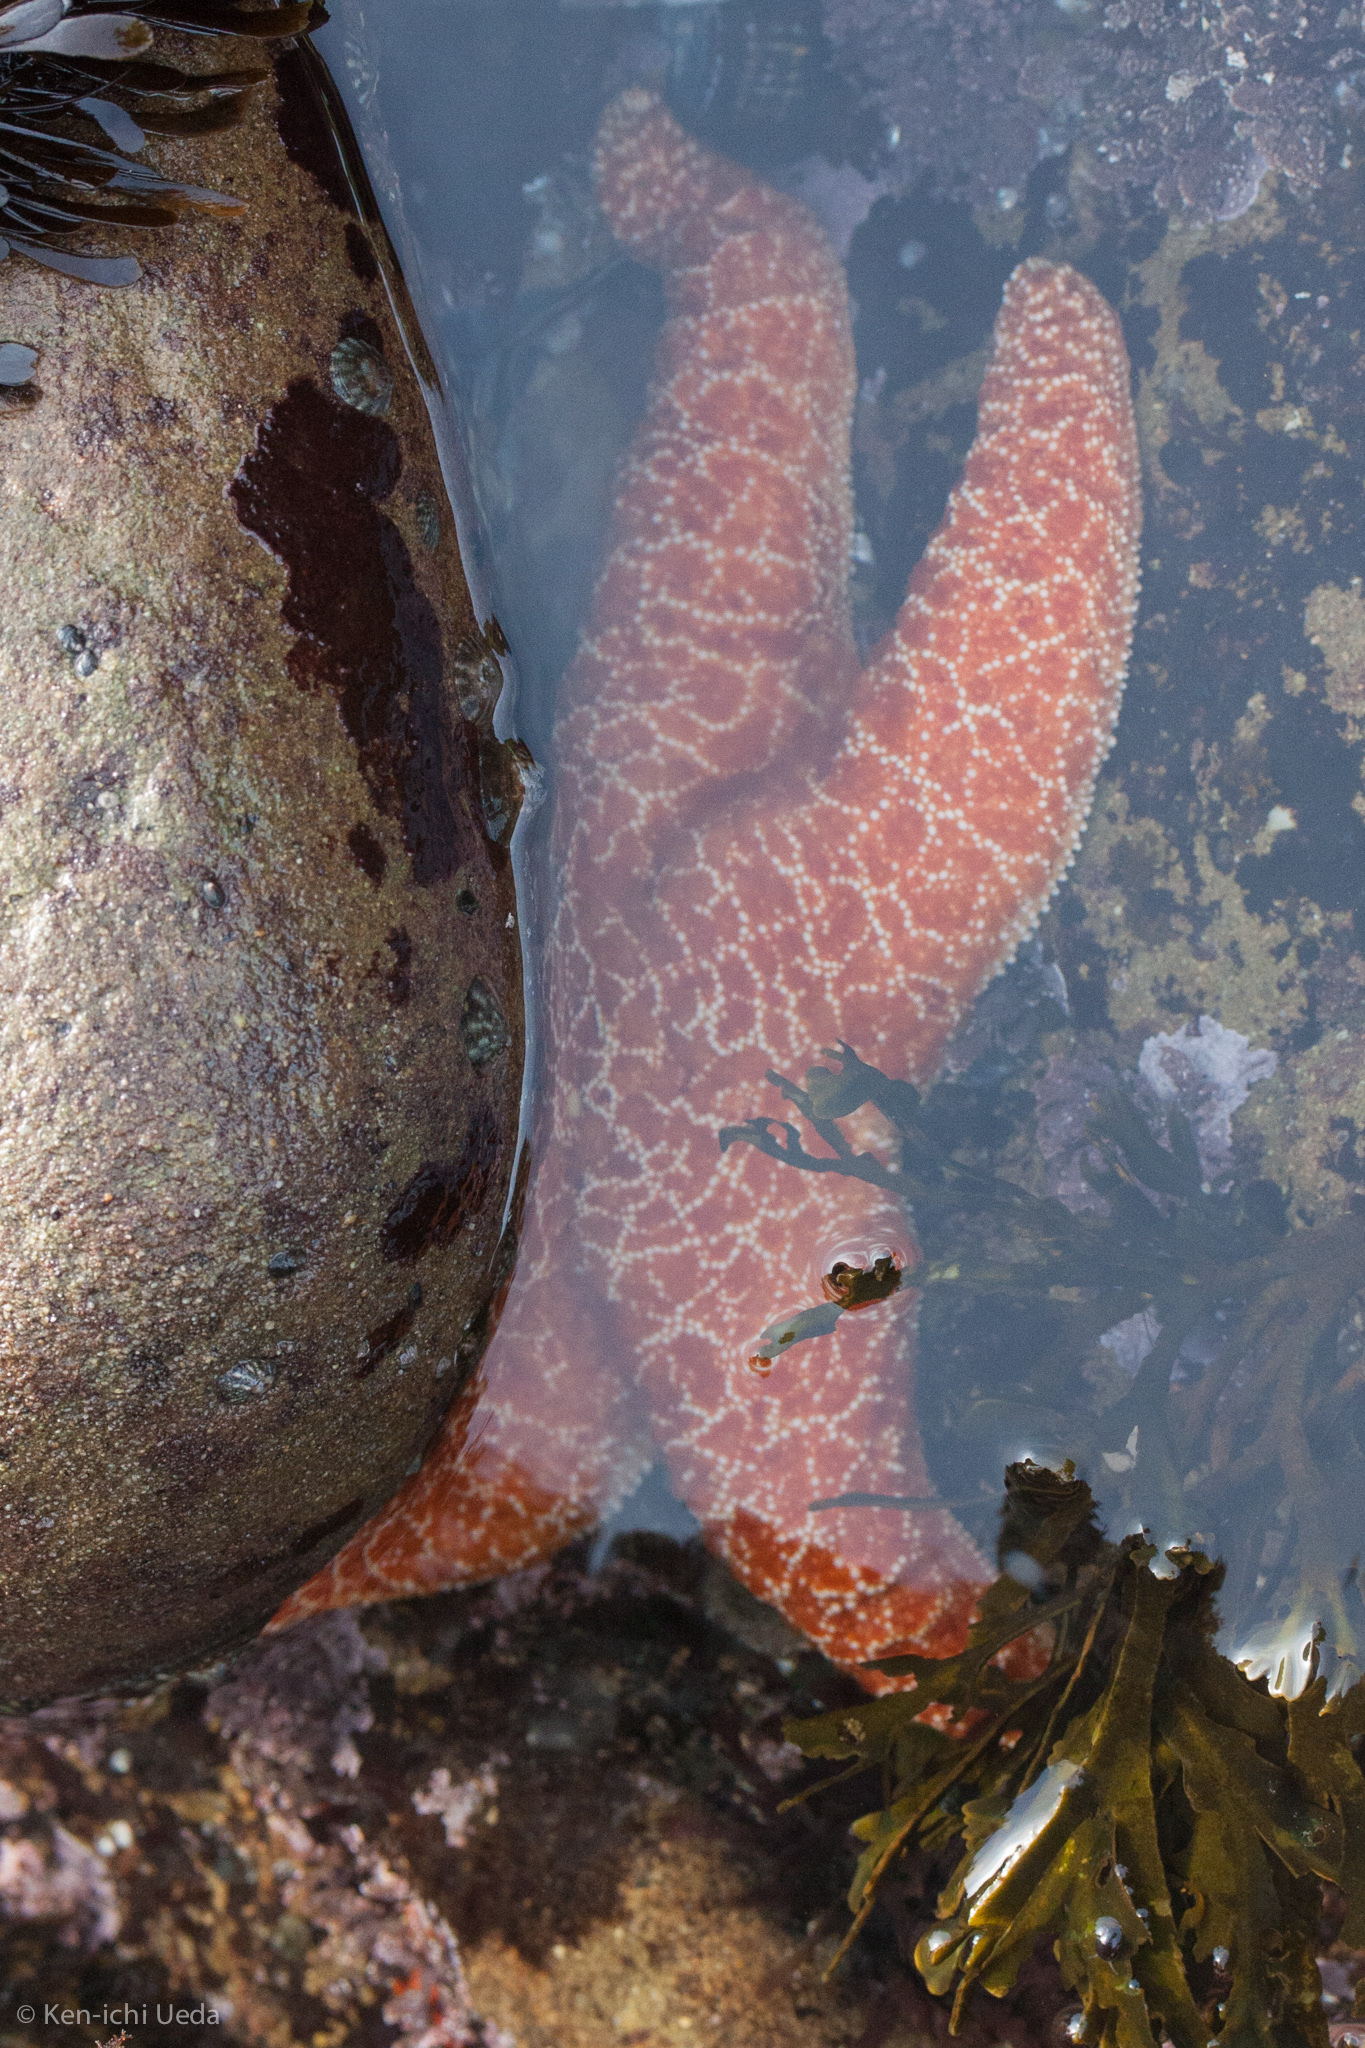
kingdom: Animalia
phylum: Echinodermata
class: Asteroidea
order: Forcipulatida
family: Asteriidae
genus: Pisaster
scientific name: Pisaster ochraceus
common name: Ochre stars
